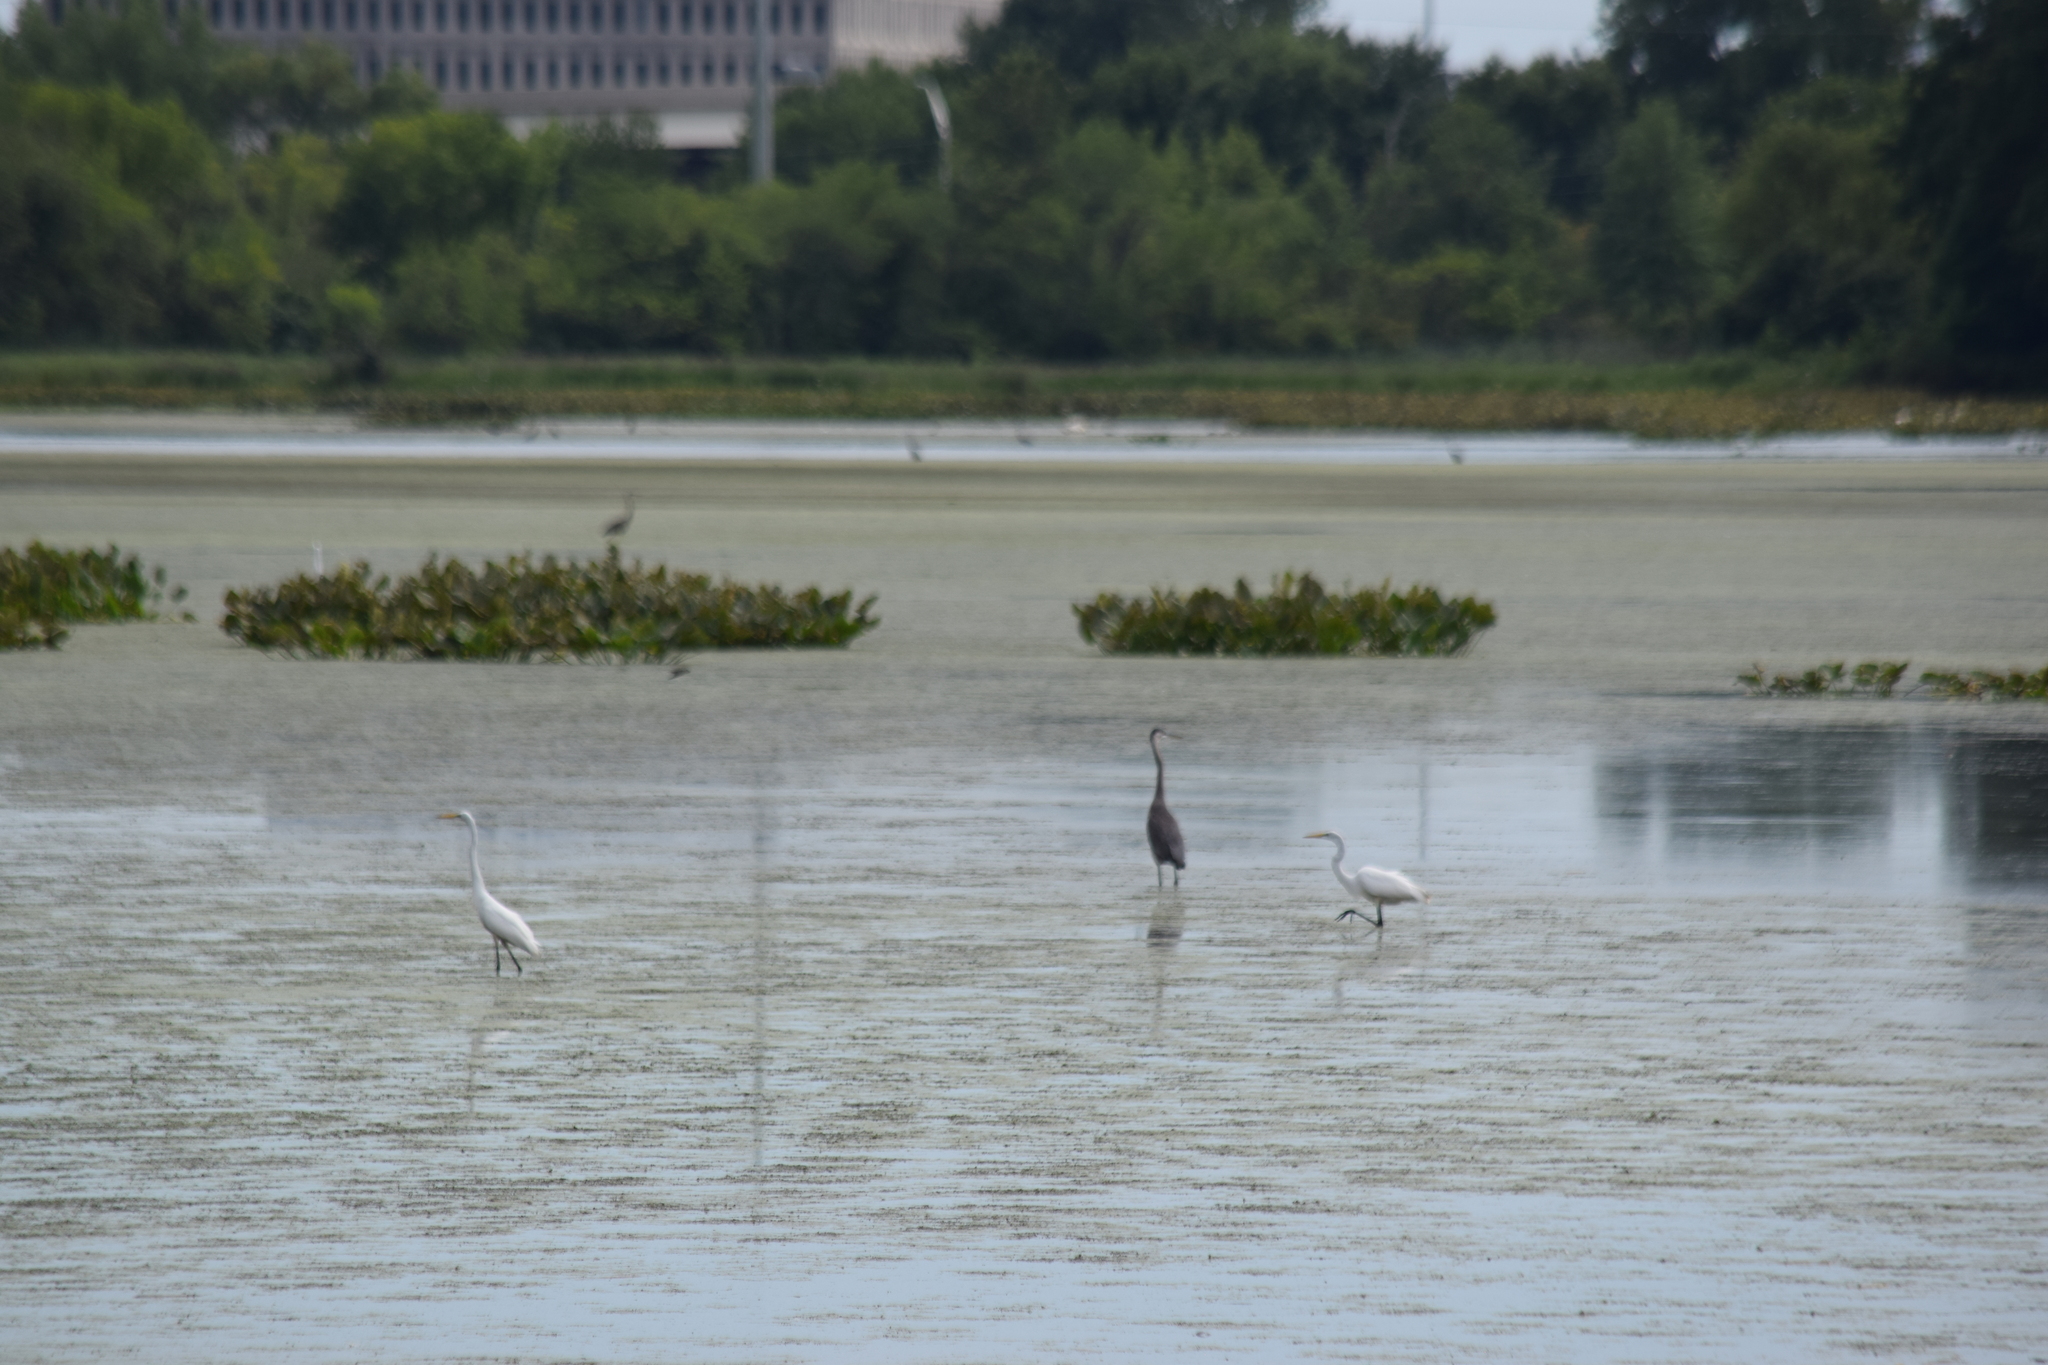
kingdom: Animalia
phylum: Chordata
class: Aves
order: Pelecaniformes
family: Ardeidae
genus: Ardea
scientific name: Ardea herodias
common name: Great blue heron
